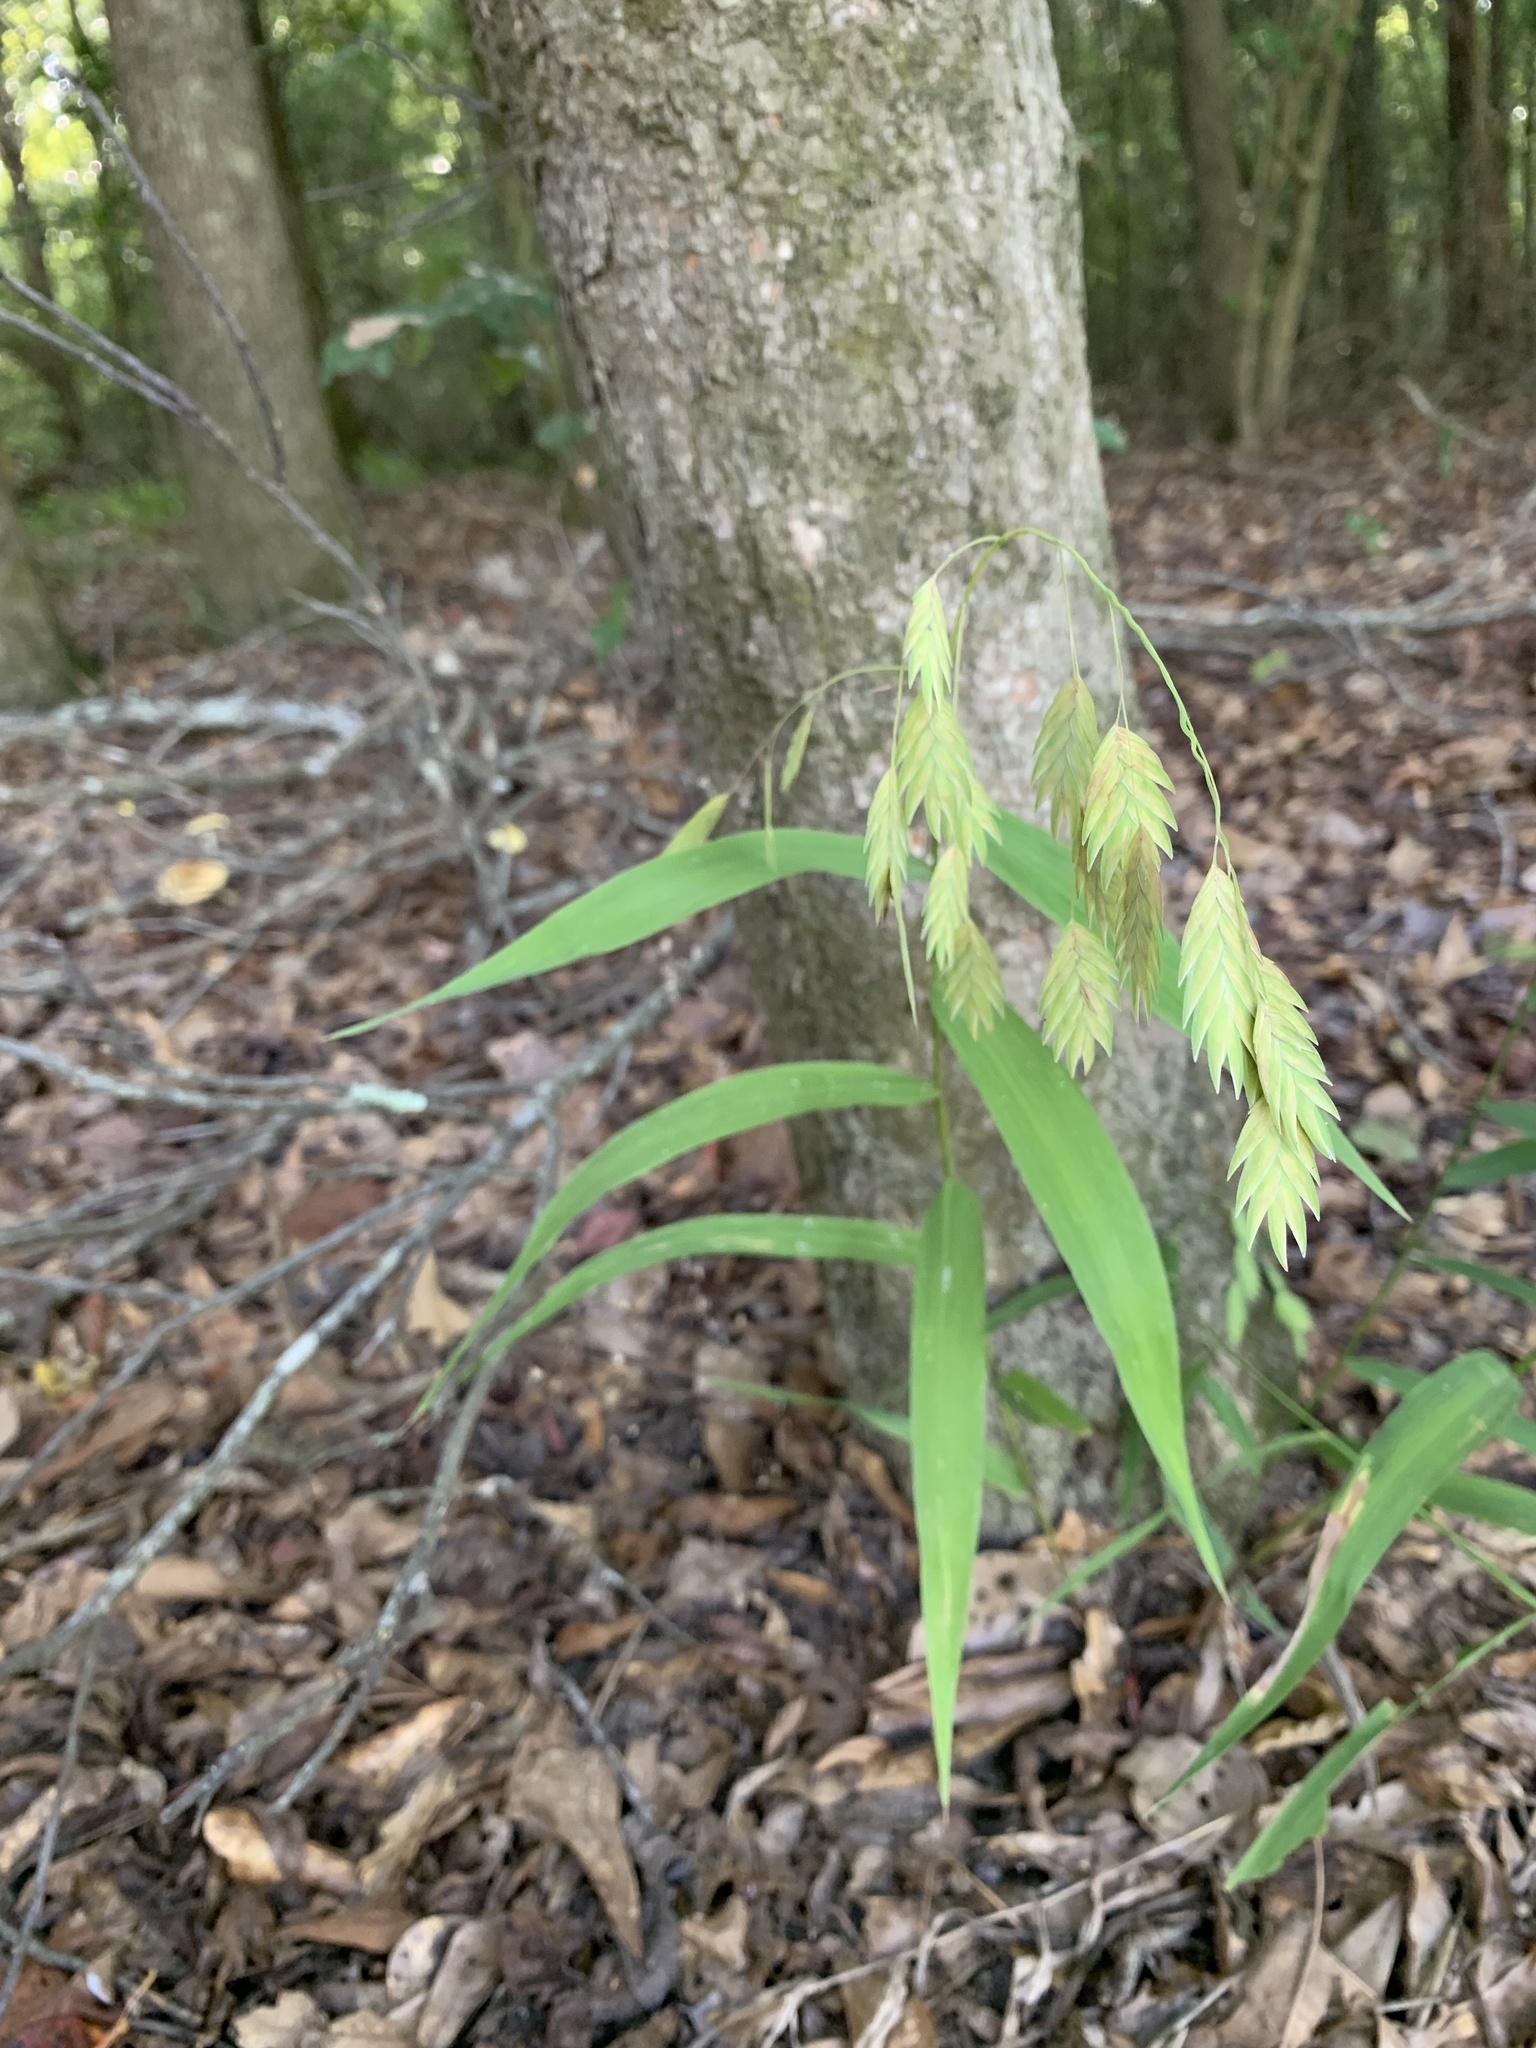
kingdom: Plantae
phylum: Tracheophyta
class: Liliopsida
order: Poales
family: Poaceae
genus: Chasmanthium
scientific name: Chasmanthium latifolium
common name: Broad-leaved chasmanthium
